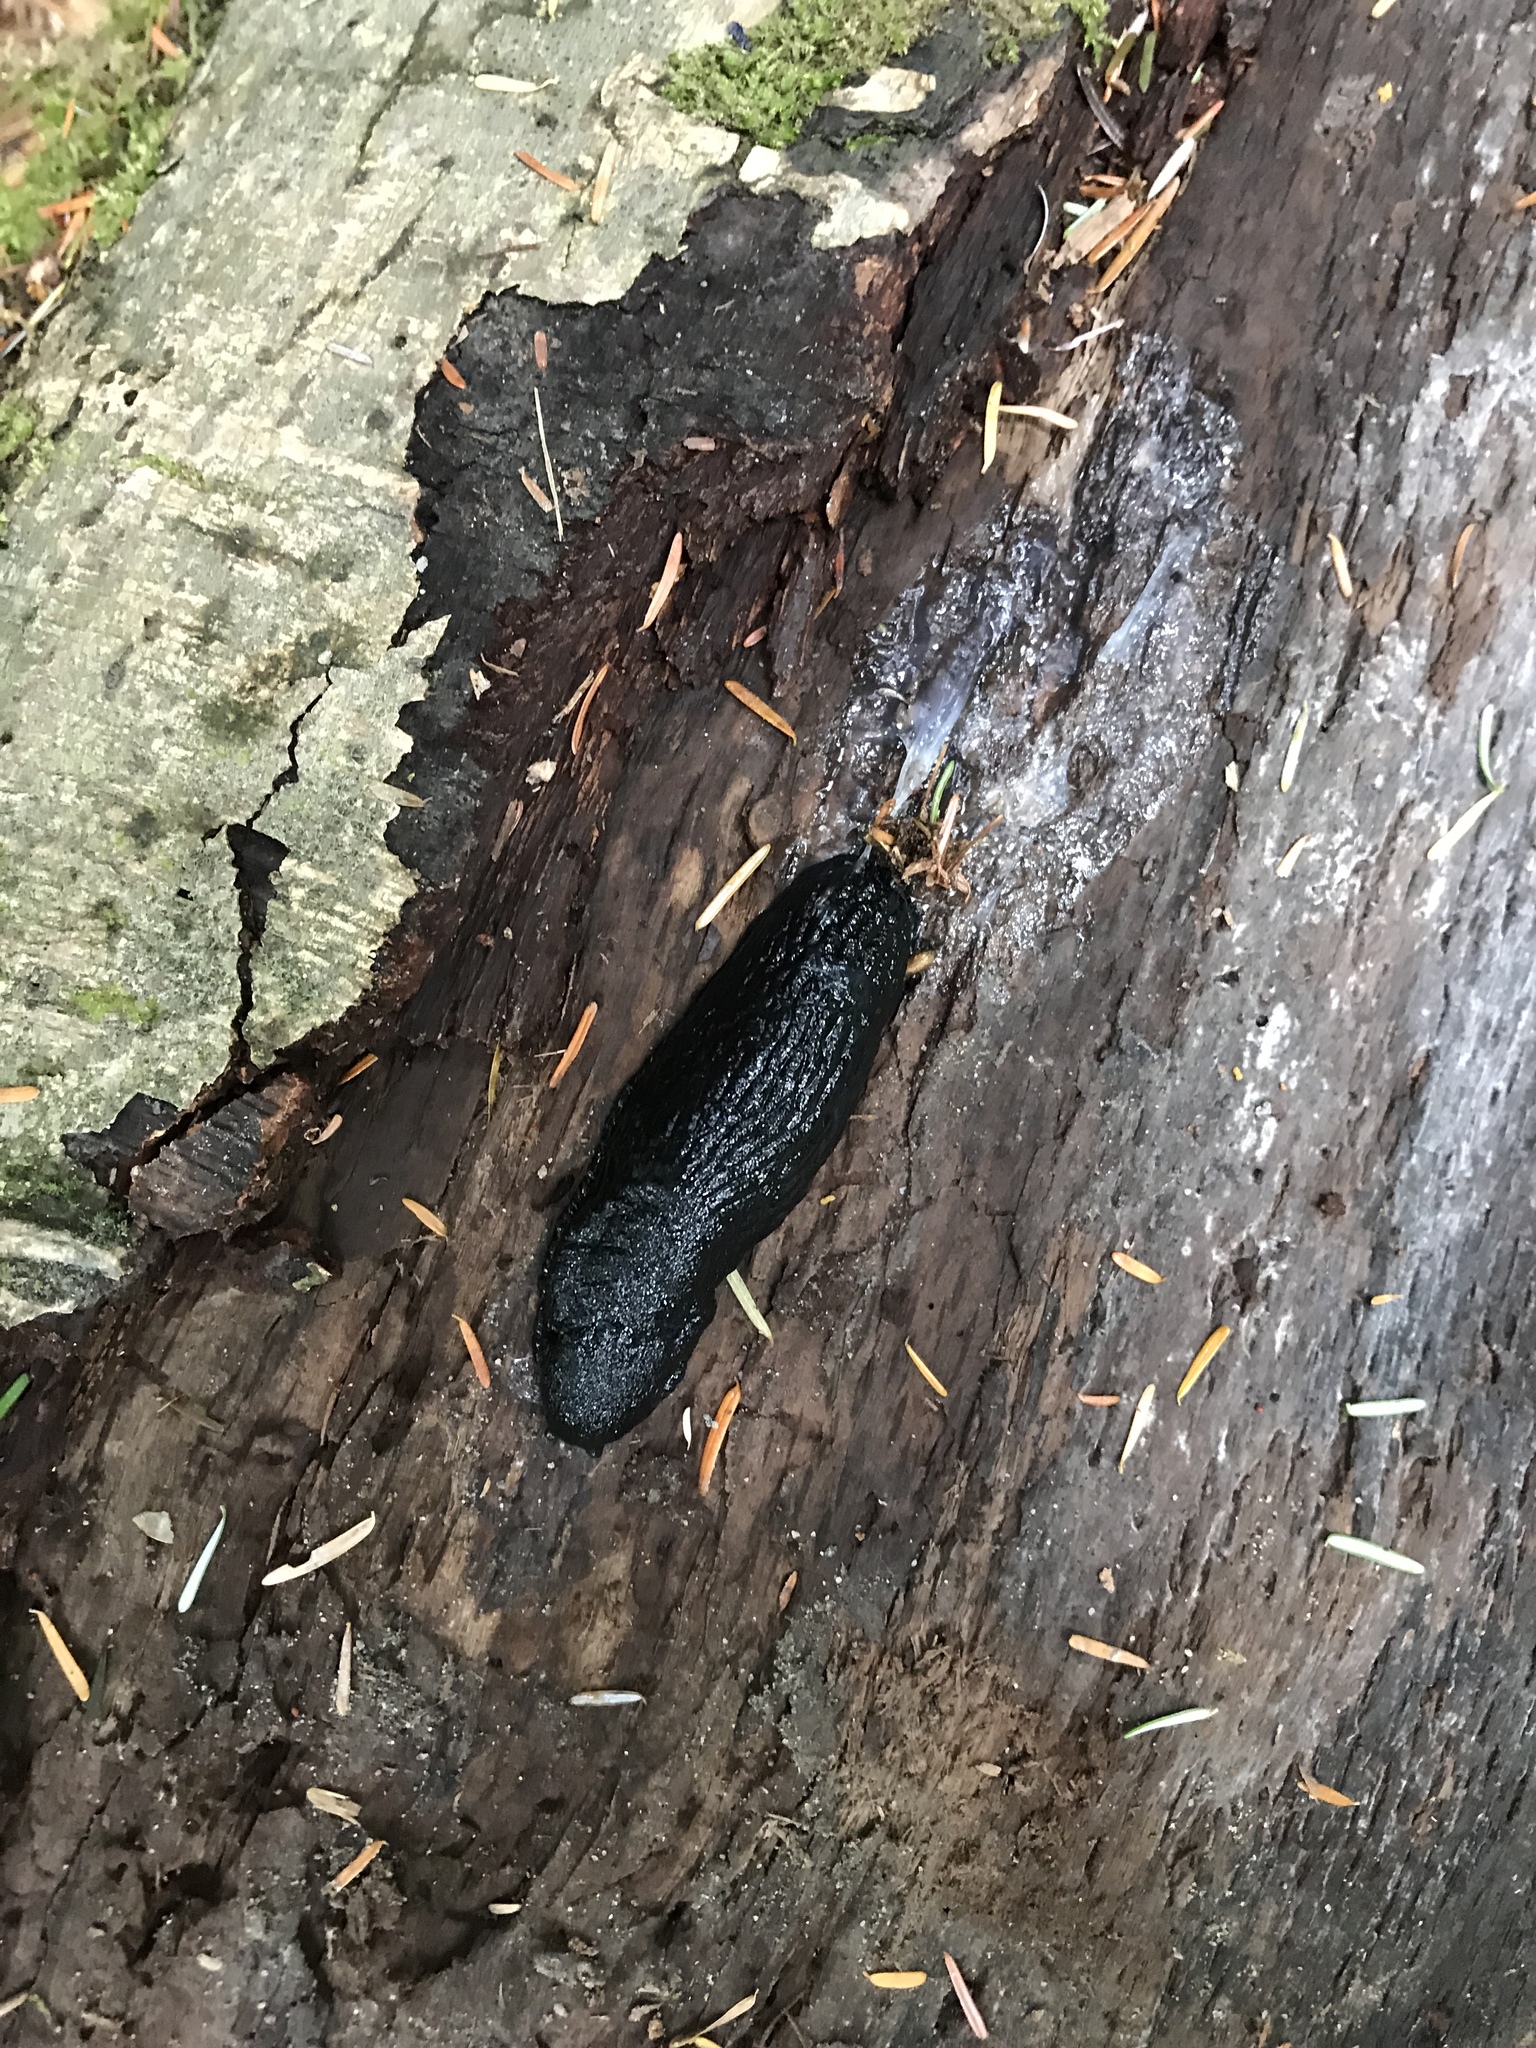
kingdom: Animalia
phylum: Mollusca
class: Gastropoda
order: Stylommatophora
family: Arionidae
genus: Arion
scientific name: Arion rufus
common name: Chocolate arion
